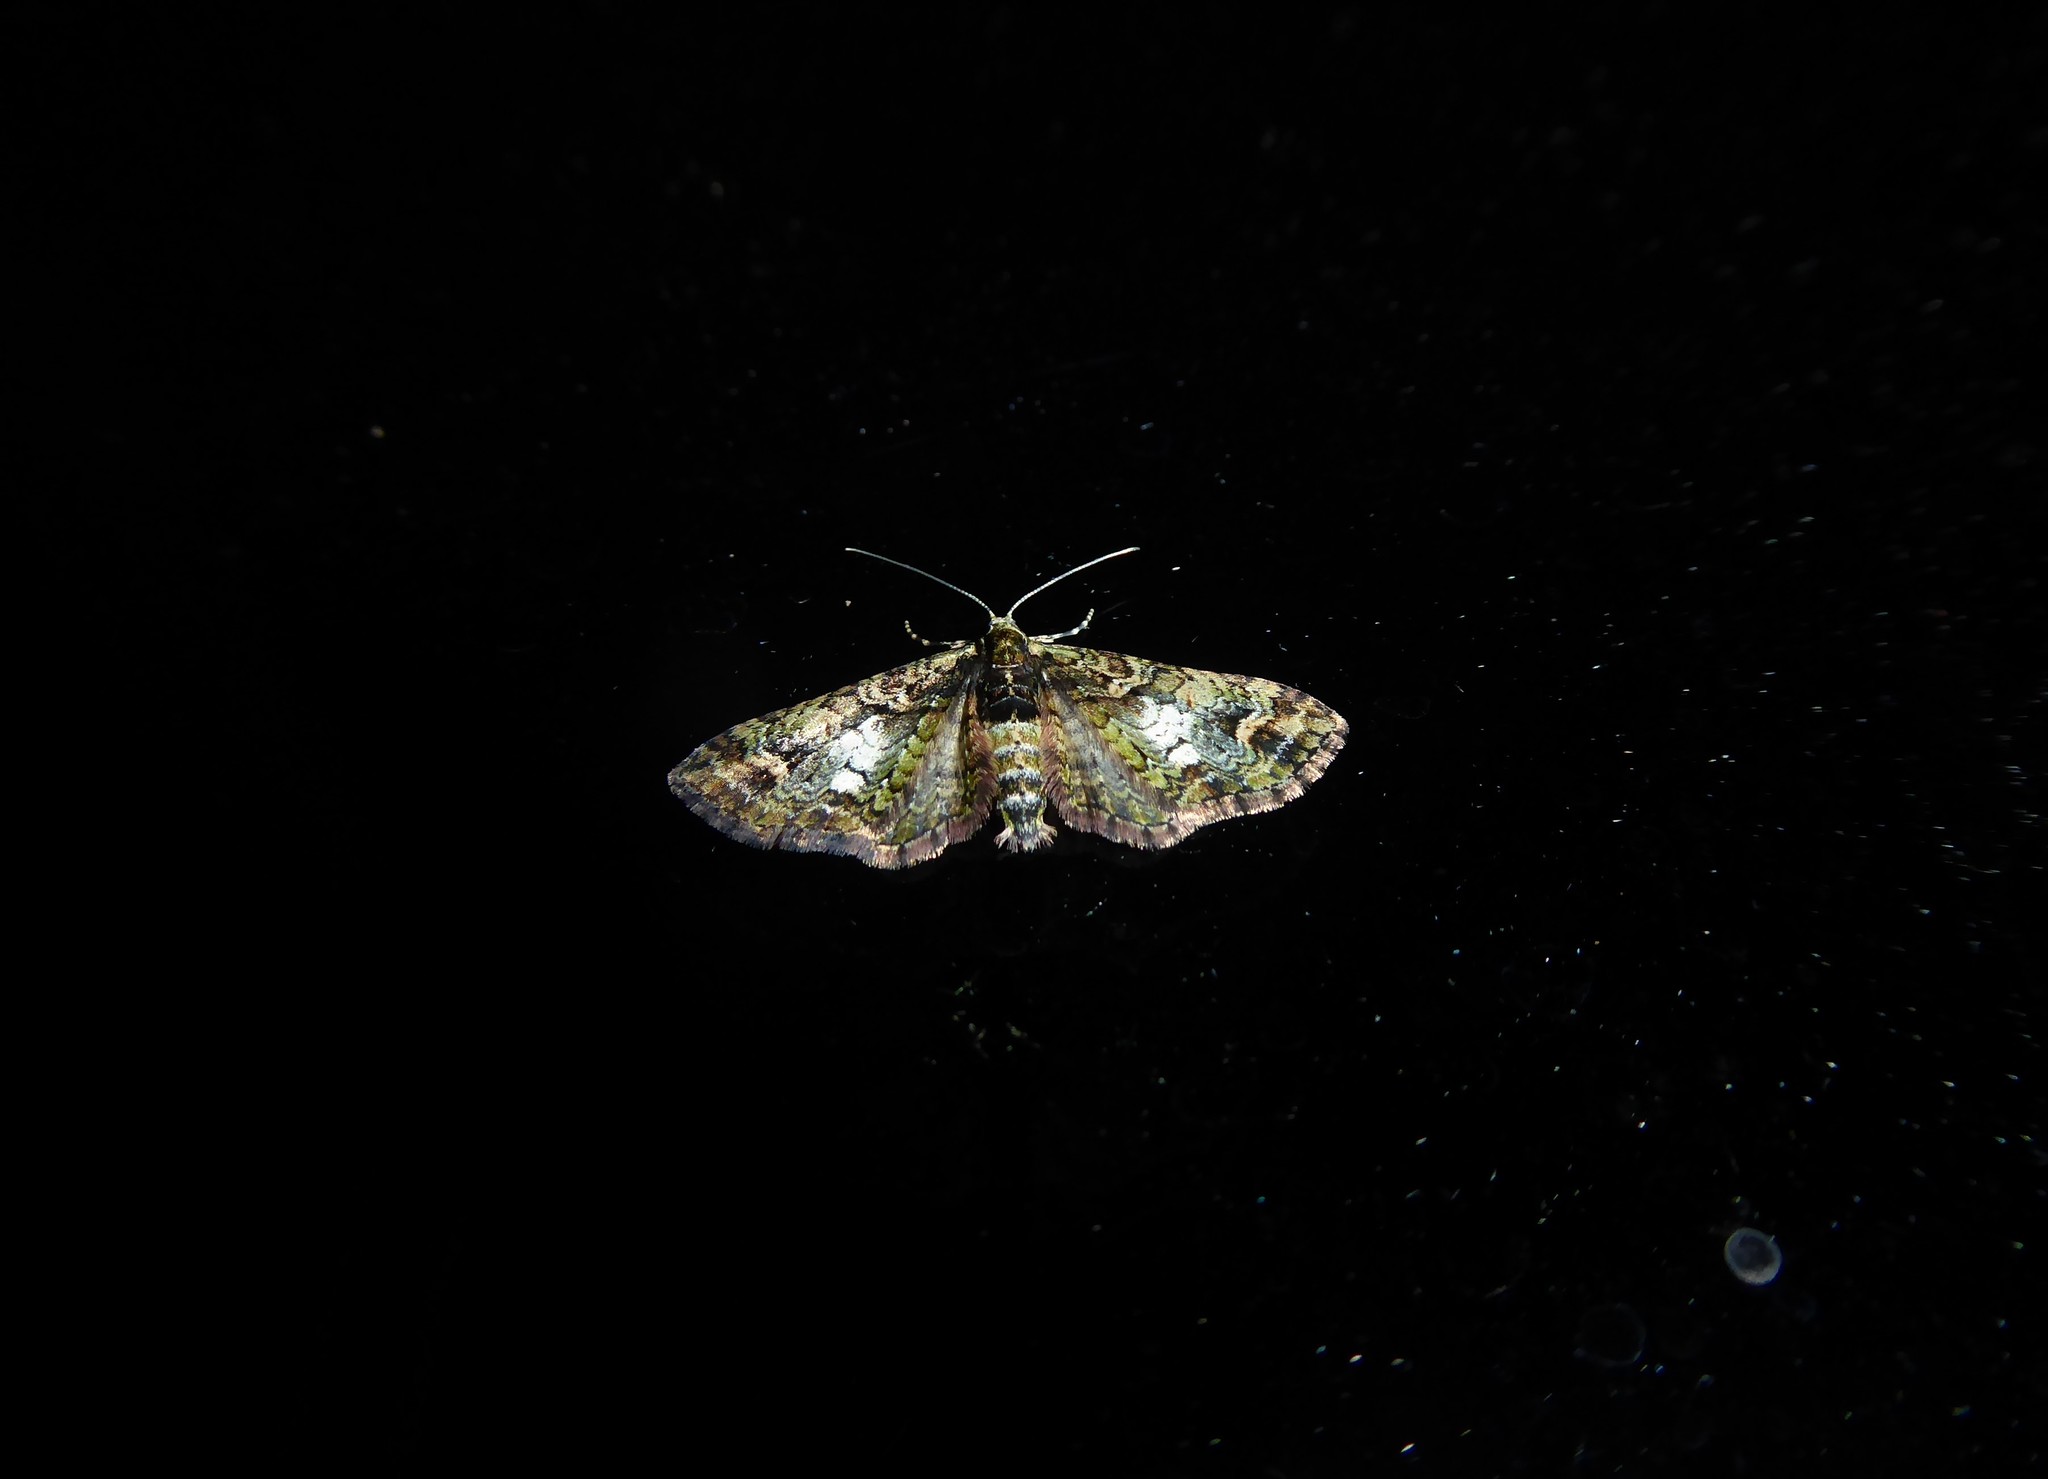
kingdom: Animalia
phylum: Arthropoda
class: Insecta
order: Lepidoptera
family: Geometridae
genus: Idaea
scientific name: Idaea mutanda
